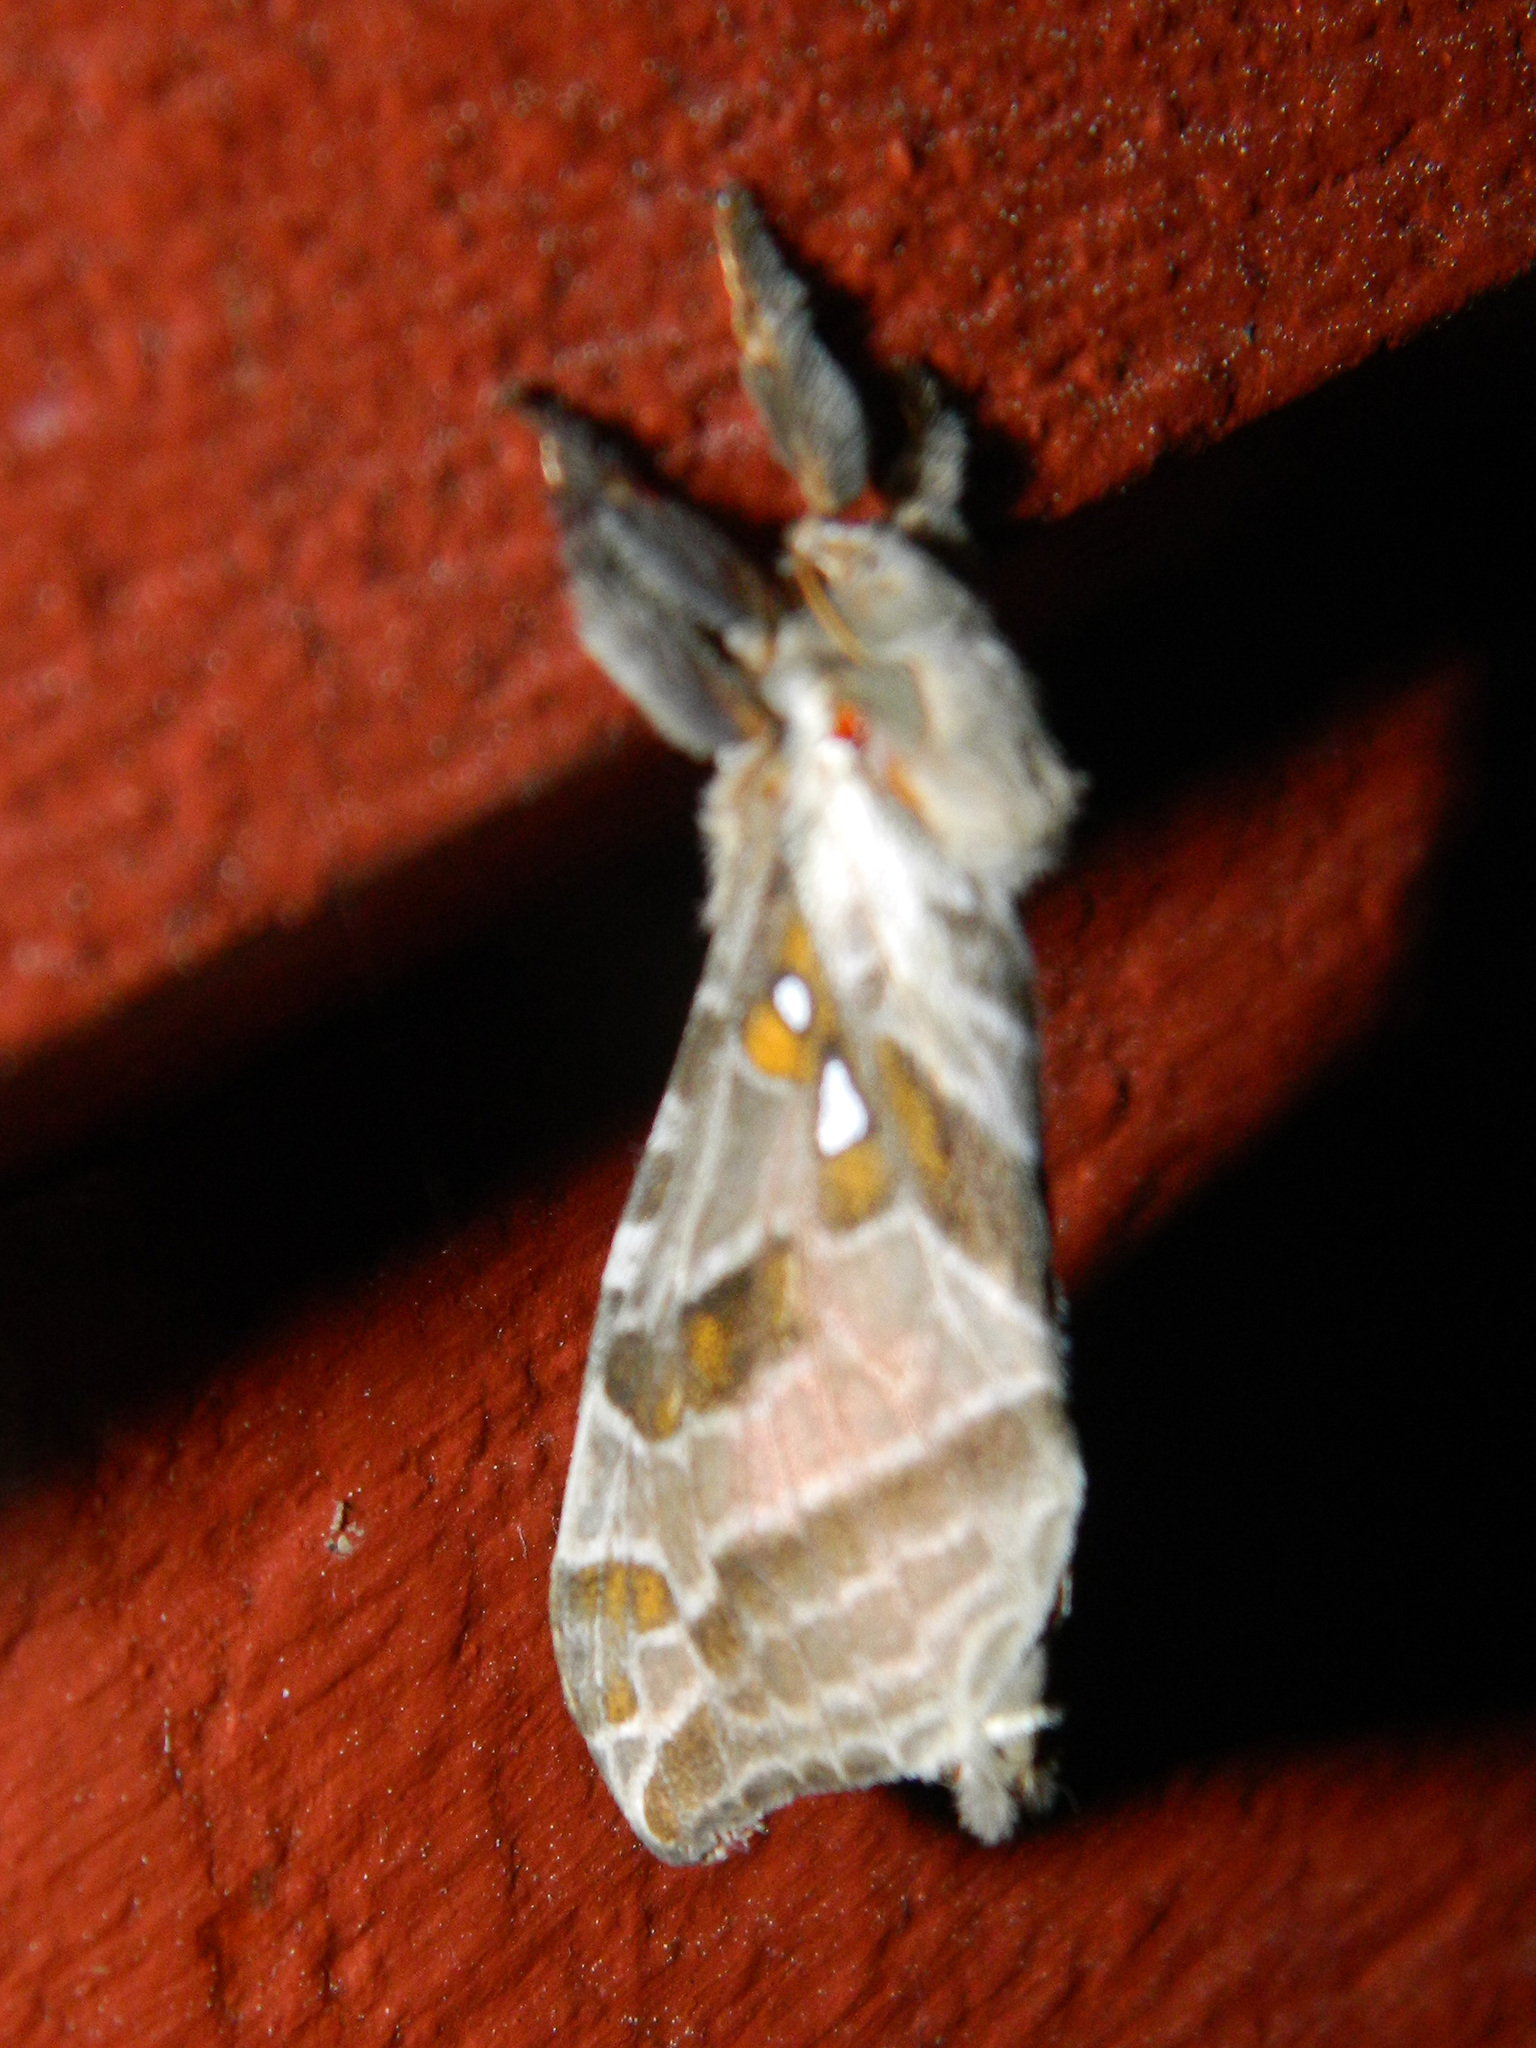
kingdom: Animalia
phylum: Arthropoda
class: Insecta
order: Lepidoptera
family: Hepialidae
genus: Sthenopis
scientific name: Sthenopis argenteomaculatus
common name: Silver-spotted ghost moth
